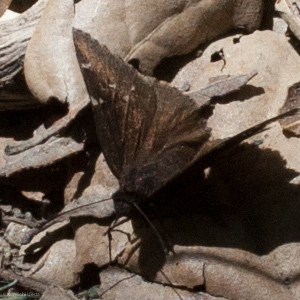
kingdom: Animalia
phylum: Arthropoda
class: Insecta
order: Lepidoptera
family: Hesperiidae
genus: Thorybes
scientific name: Thorybes pylades
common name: Northern cloudywing
